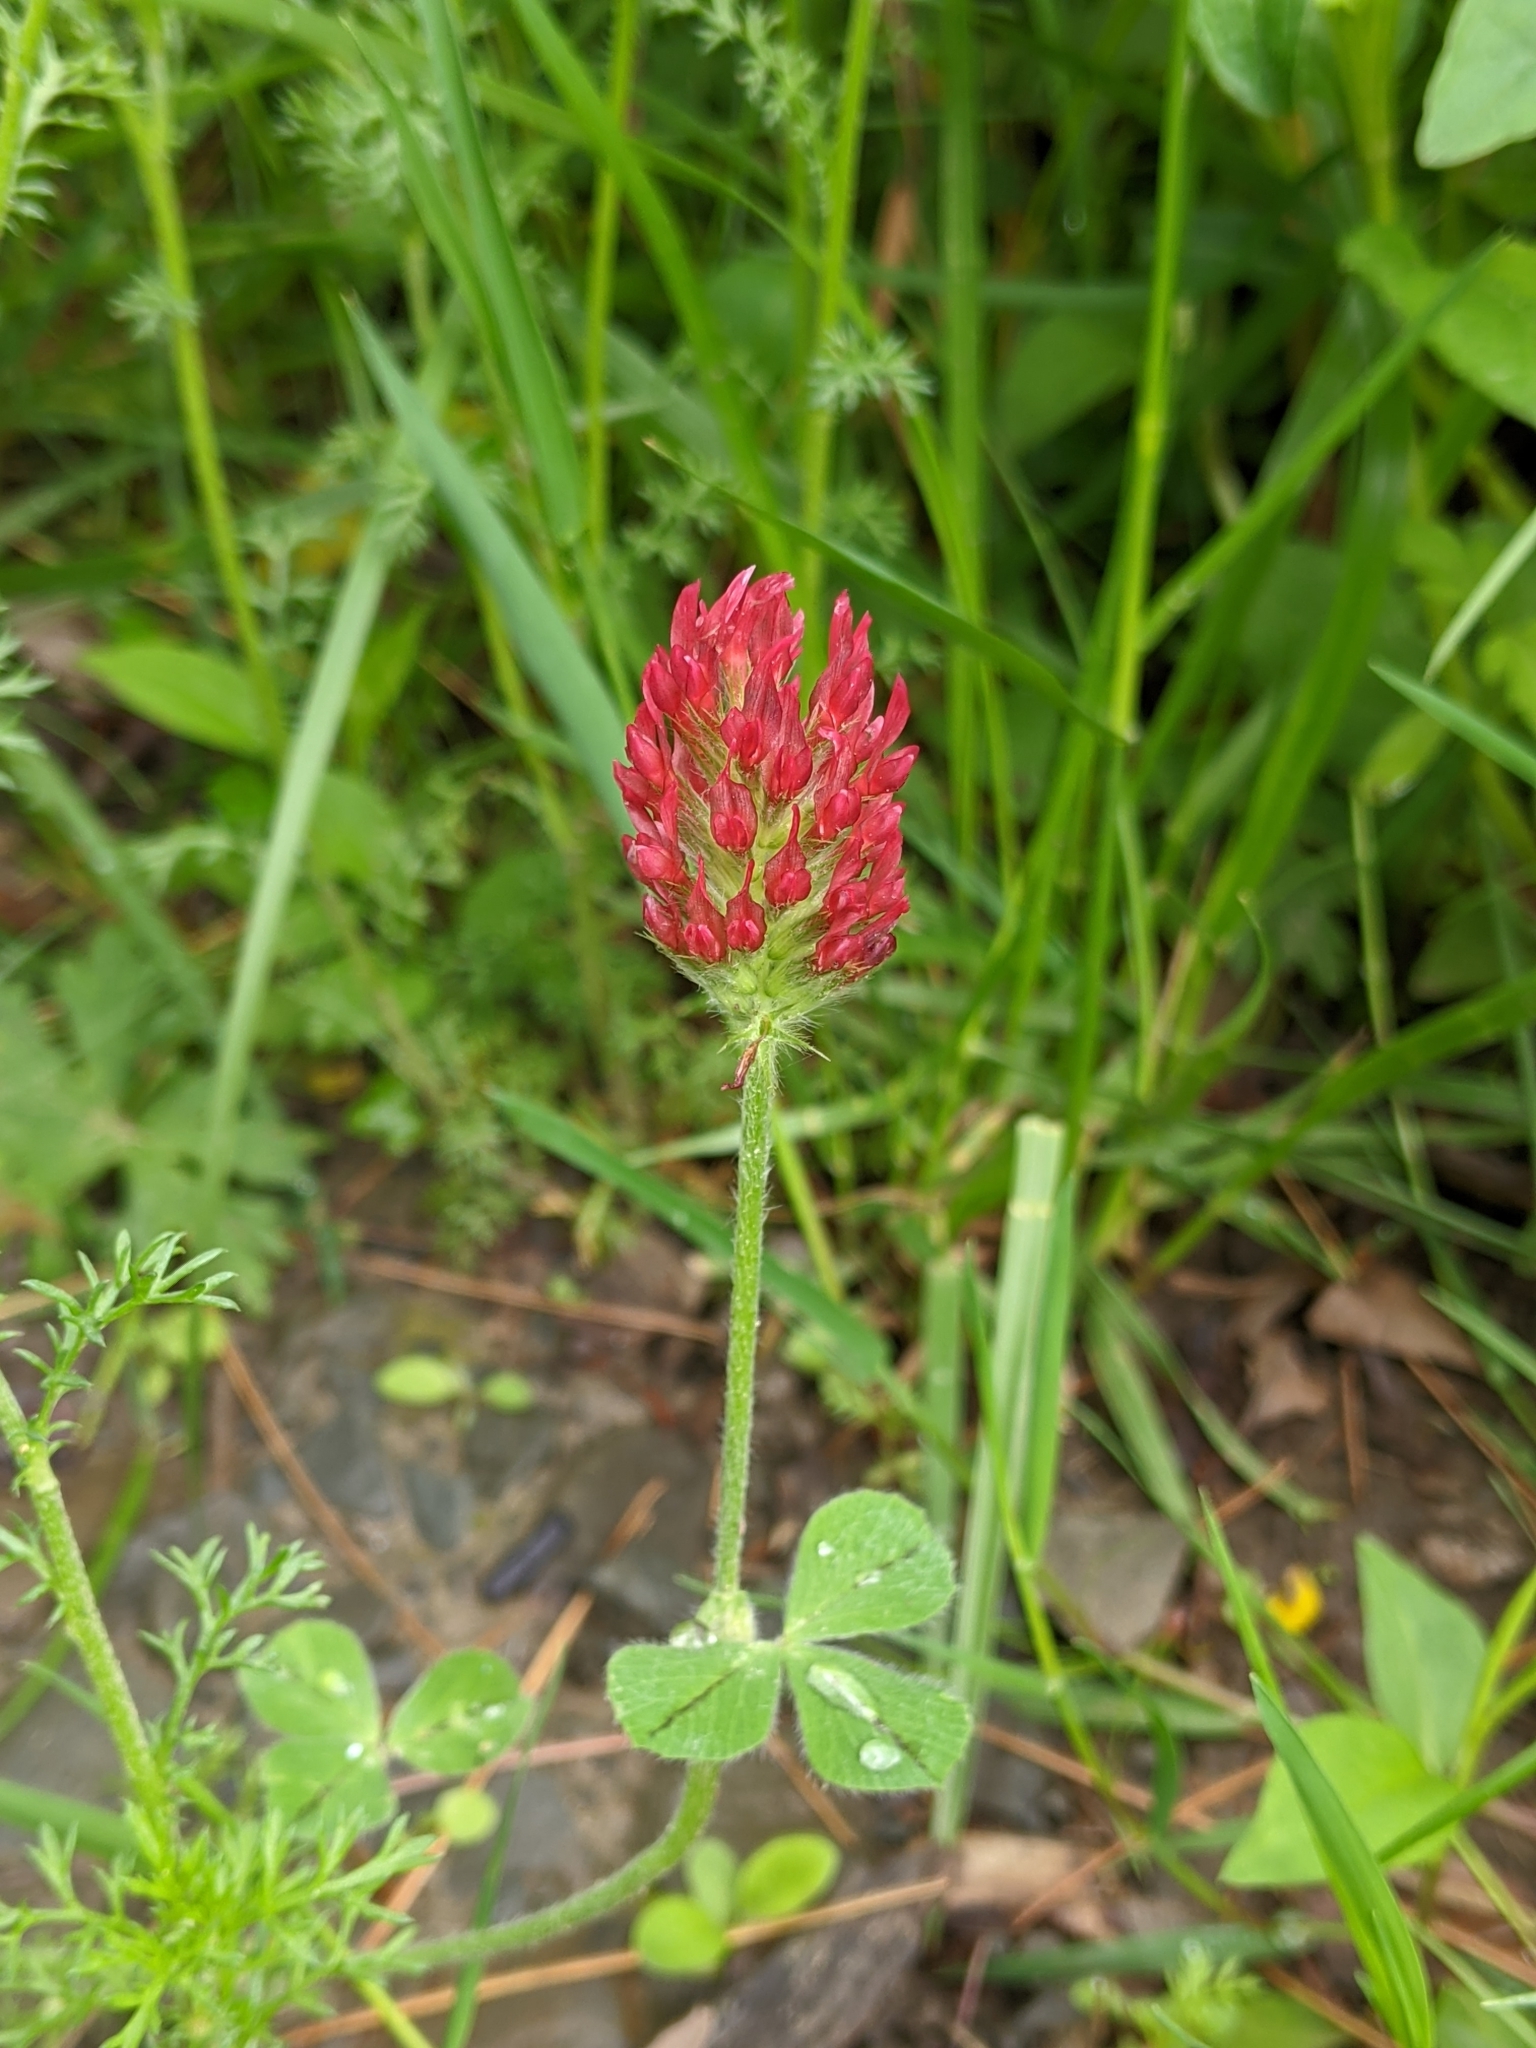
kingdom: Plantae
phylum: Tracheophyta
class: Magnoliopsida
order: Fabales
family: Fabaceae
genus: Trifolium
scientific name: Trifolium incarnatum
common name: Crimson clover
